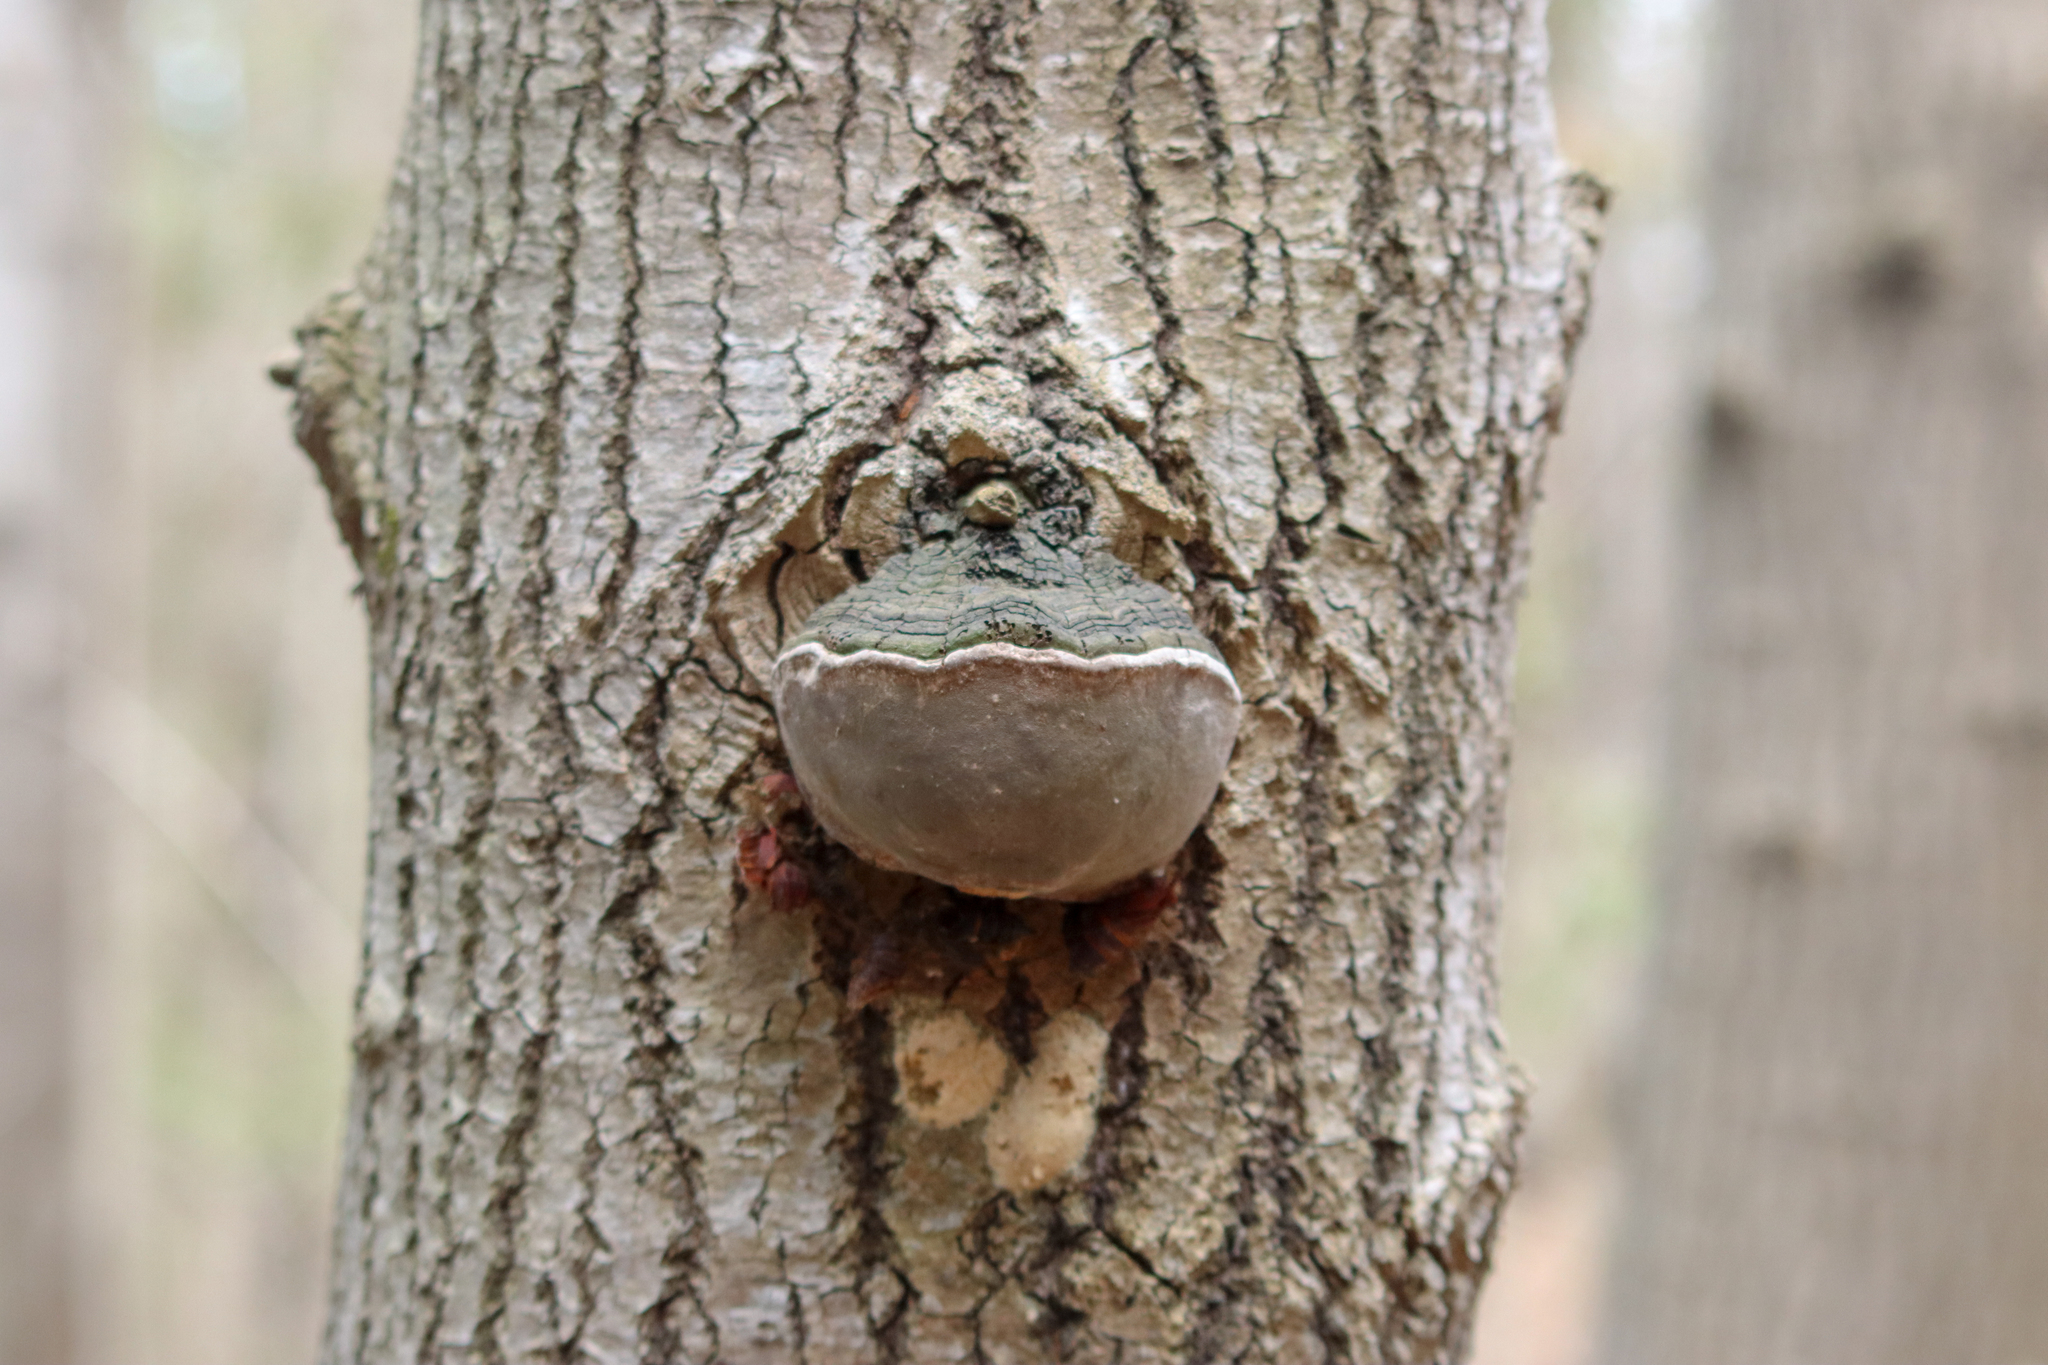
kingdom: Fungi
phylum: Basidiomycota
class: Agaricomycetes
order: Hymenochaetales
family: Hymenochaetaceae
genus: Phellinus
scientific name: Phellinus tremulae
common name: Aspen bracket
